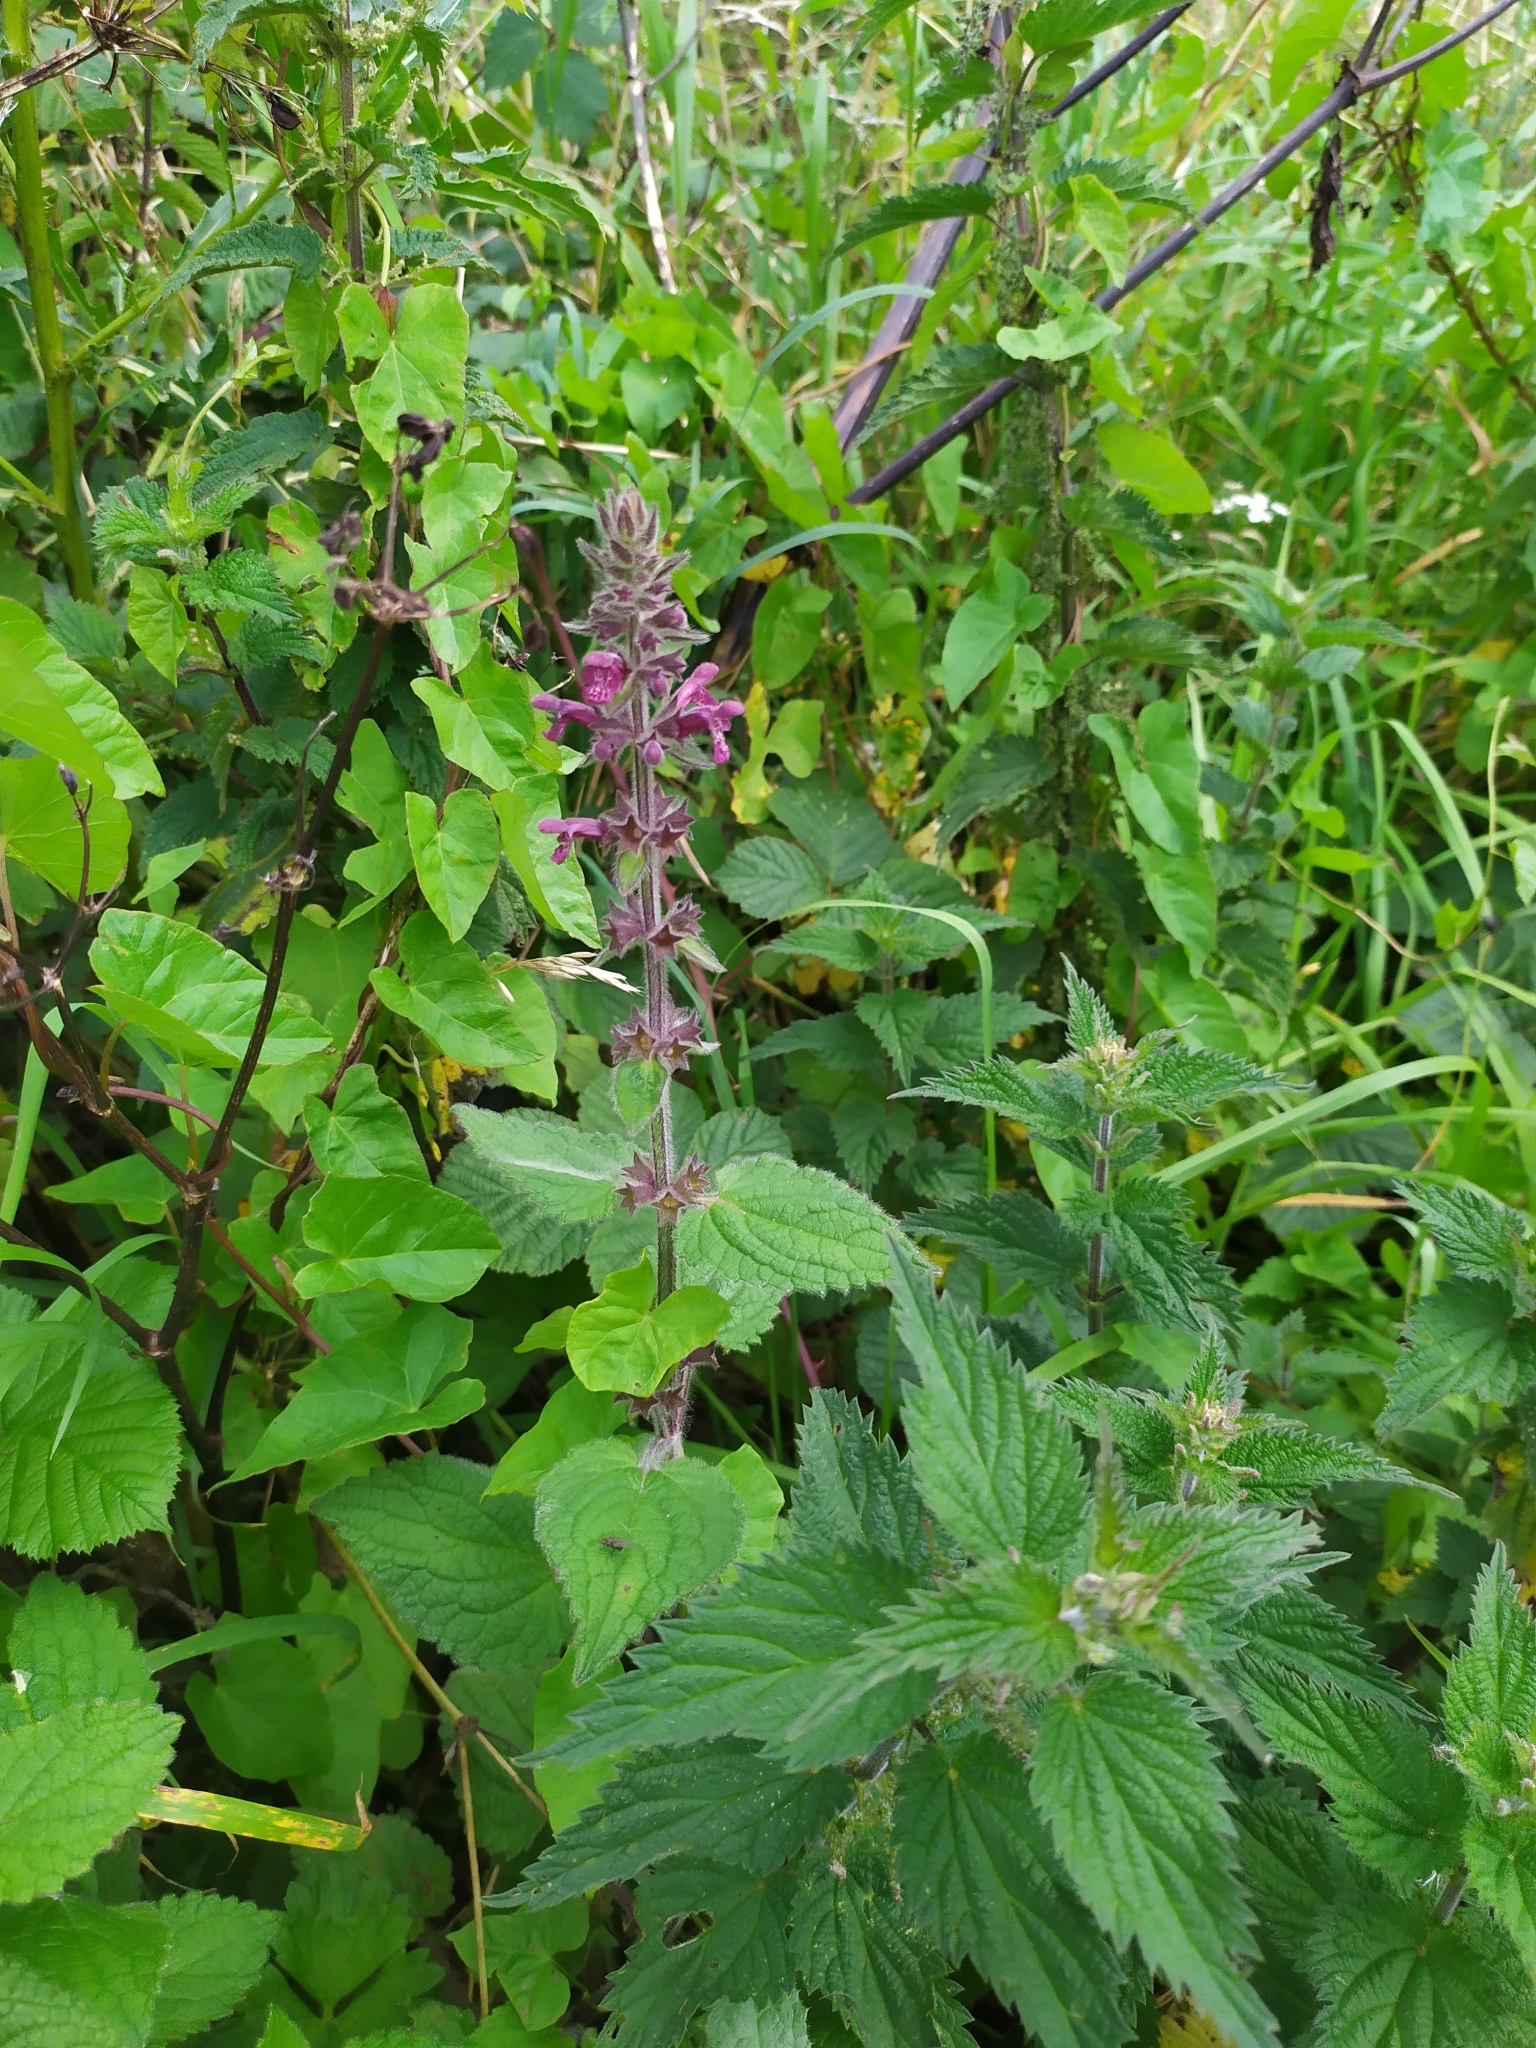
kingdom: Plantae
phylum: Tracheophyta
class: Magnoliopsida
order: Lamiales
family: Lamiaceae
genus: Stachys
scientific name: Stachys sylvatica
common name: Hedge woundwort
